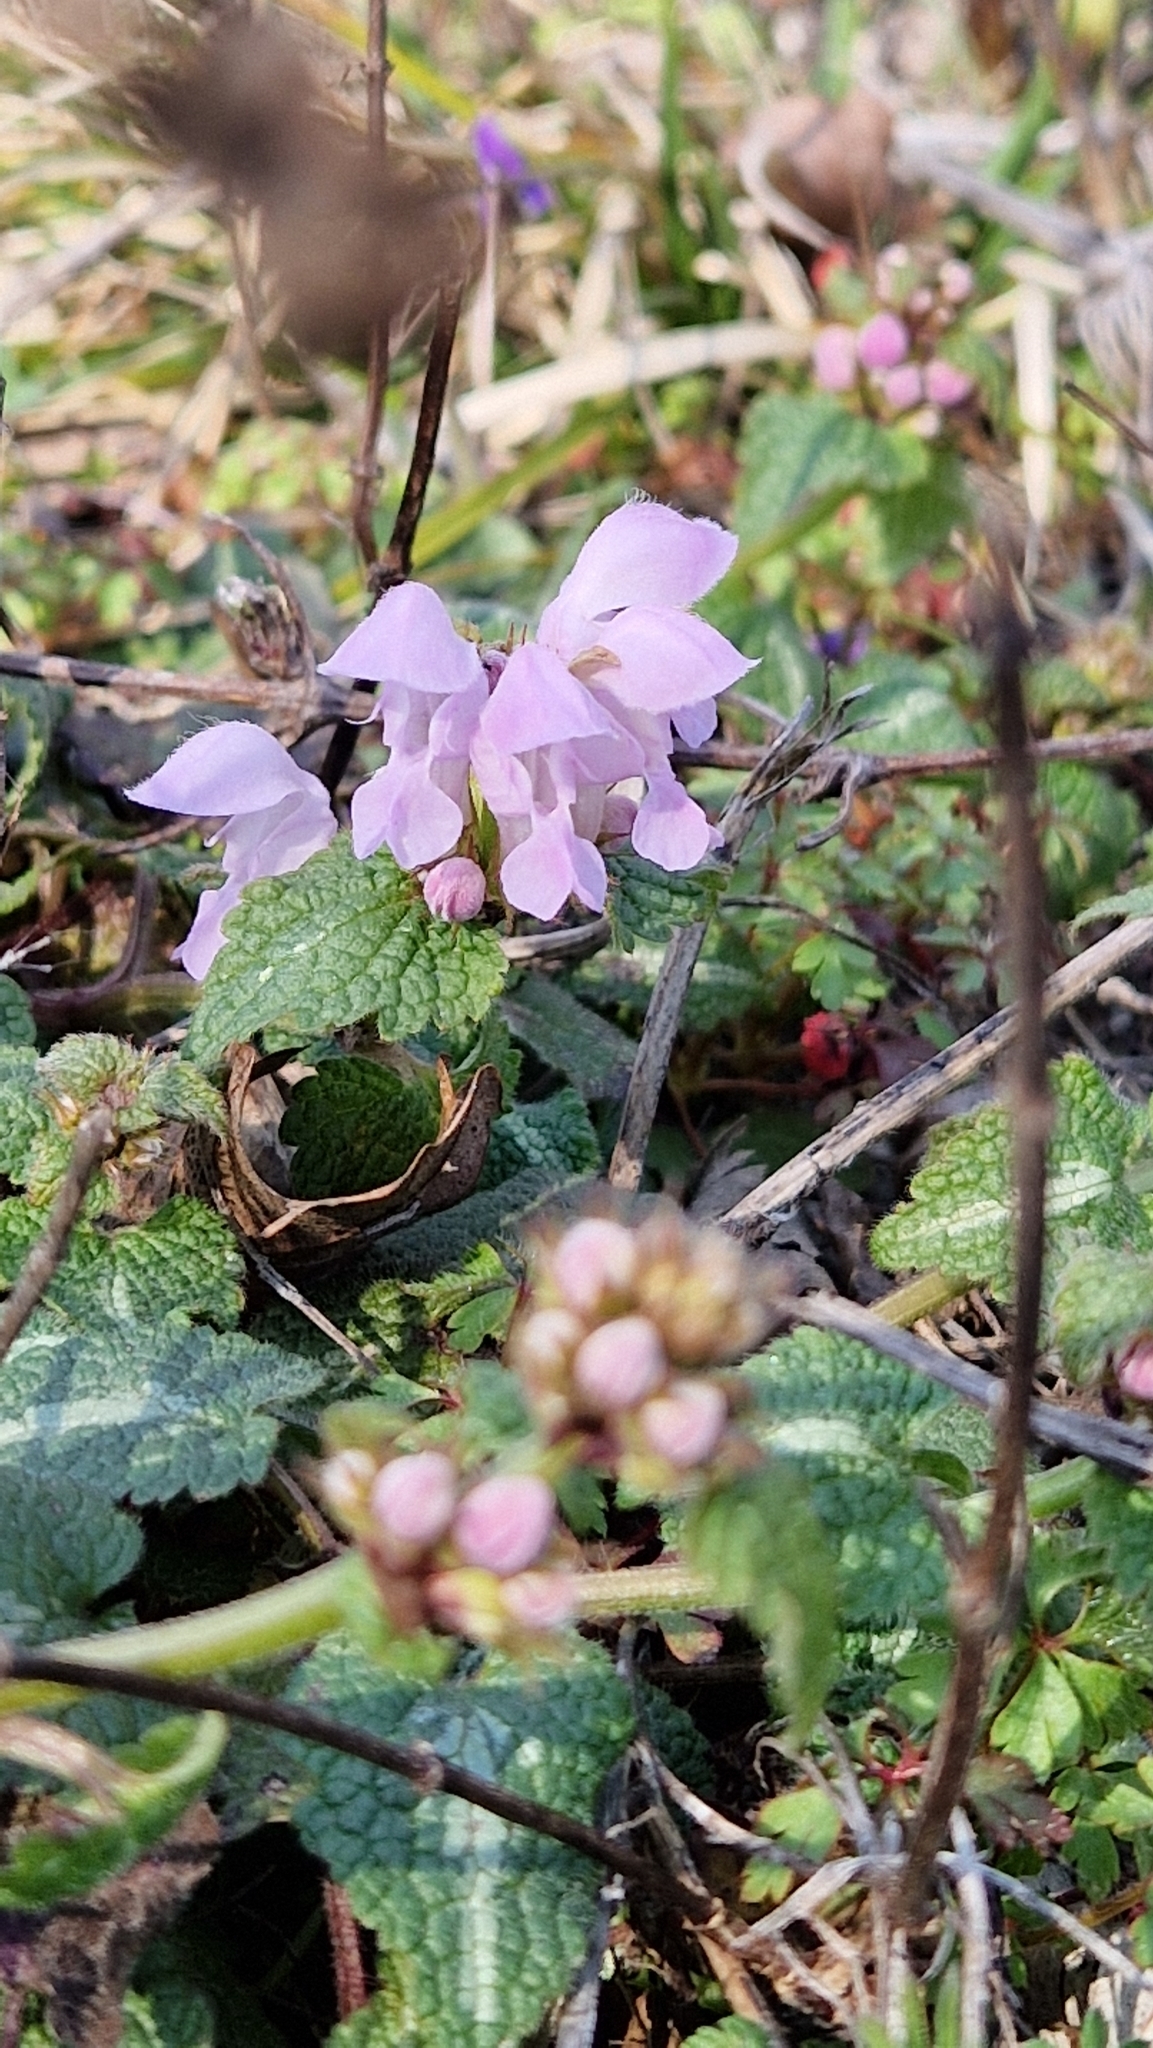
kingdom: Plantae
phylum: Tracheophyta
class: Magnoliopsida
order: Lamiales
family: Lamiaceae
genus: Lamium
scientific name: Lamium maculatum
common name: Spotted dead-nettle
